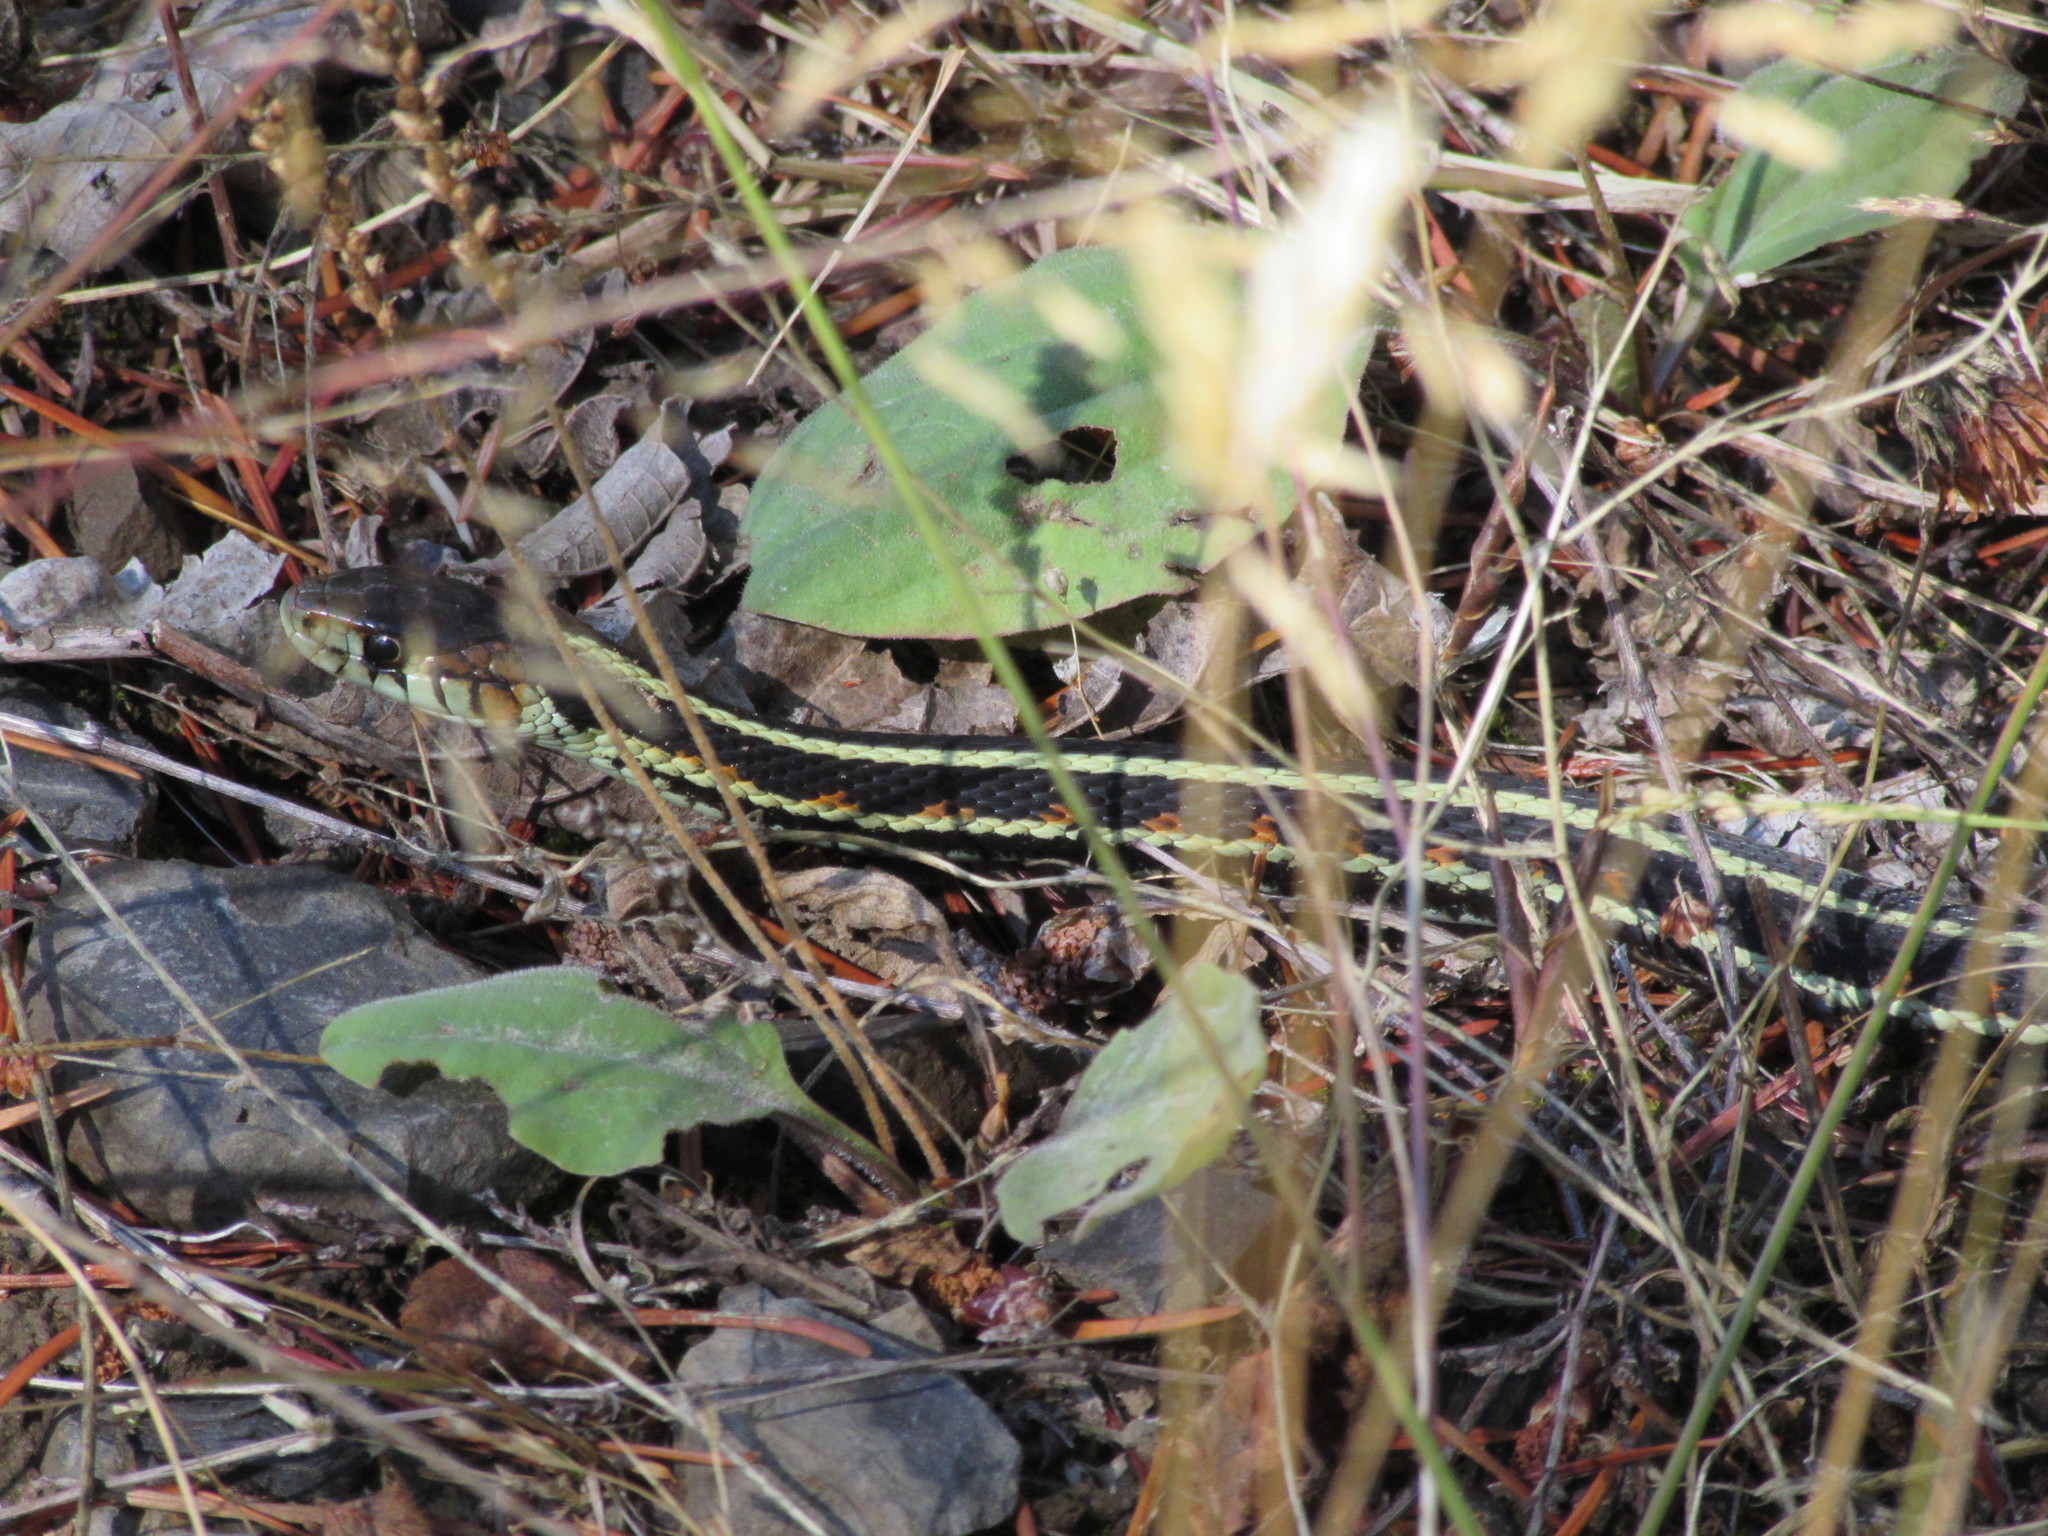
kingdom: Animalia
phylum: Chordata
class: Squamata
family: Colubridae
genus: Thamnophis
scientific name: Thamnophis sirtalis
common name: Common garter snake
